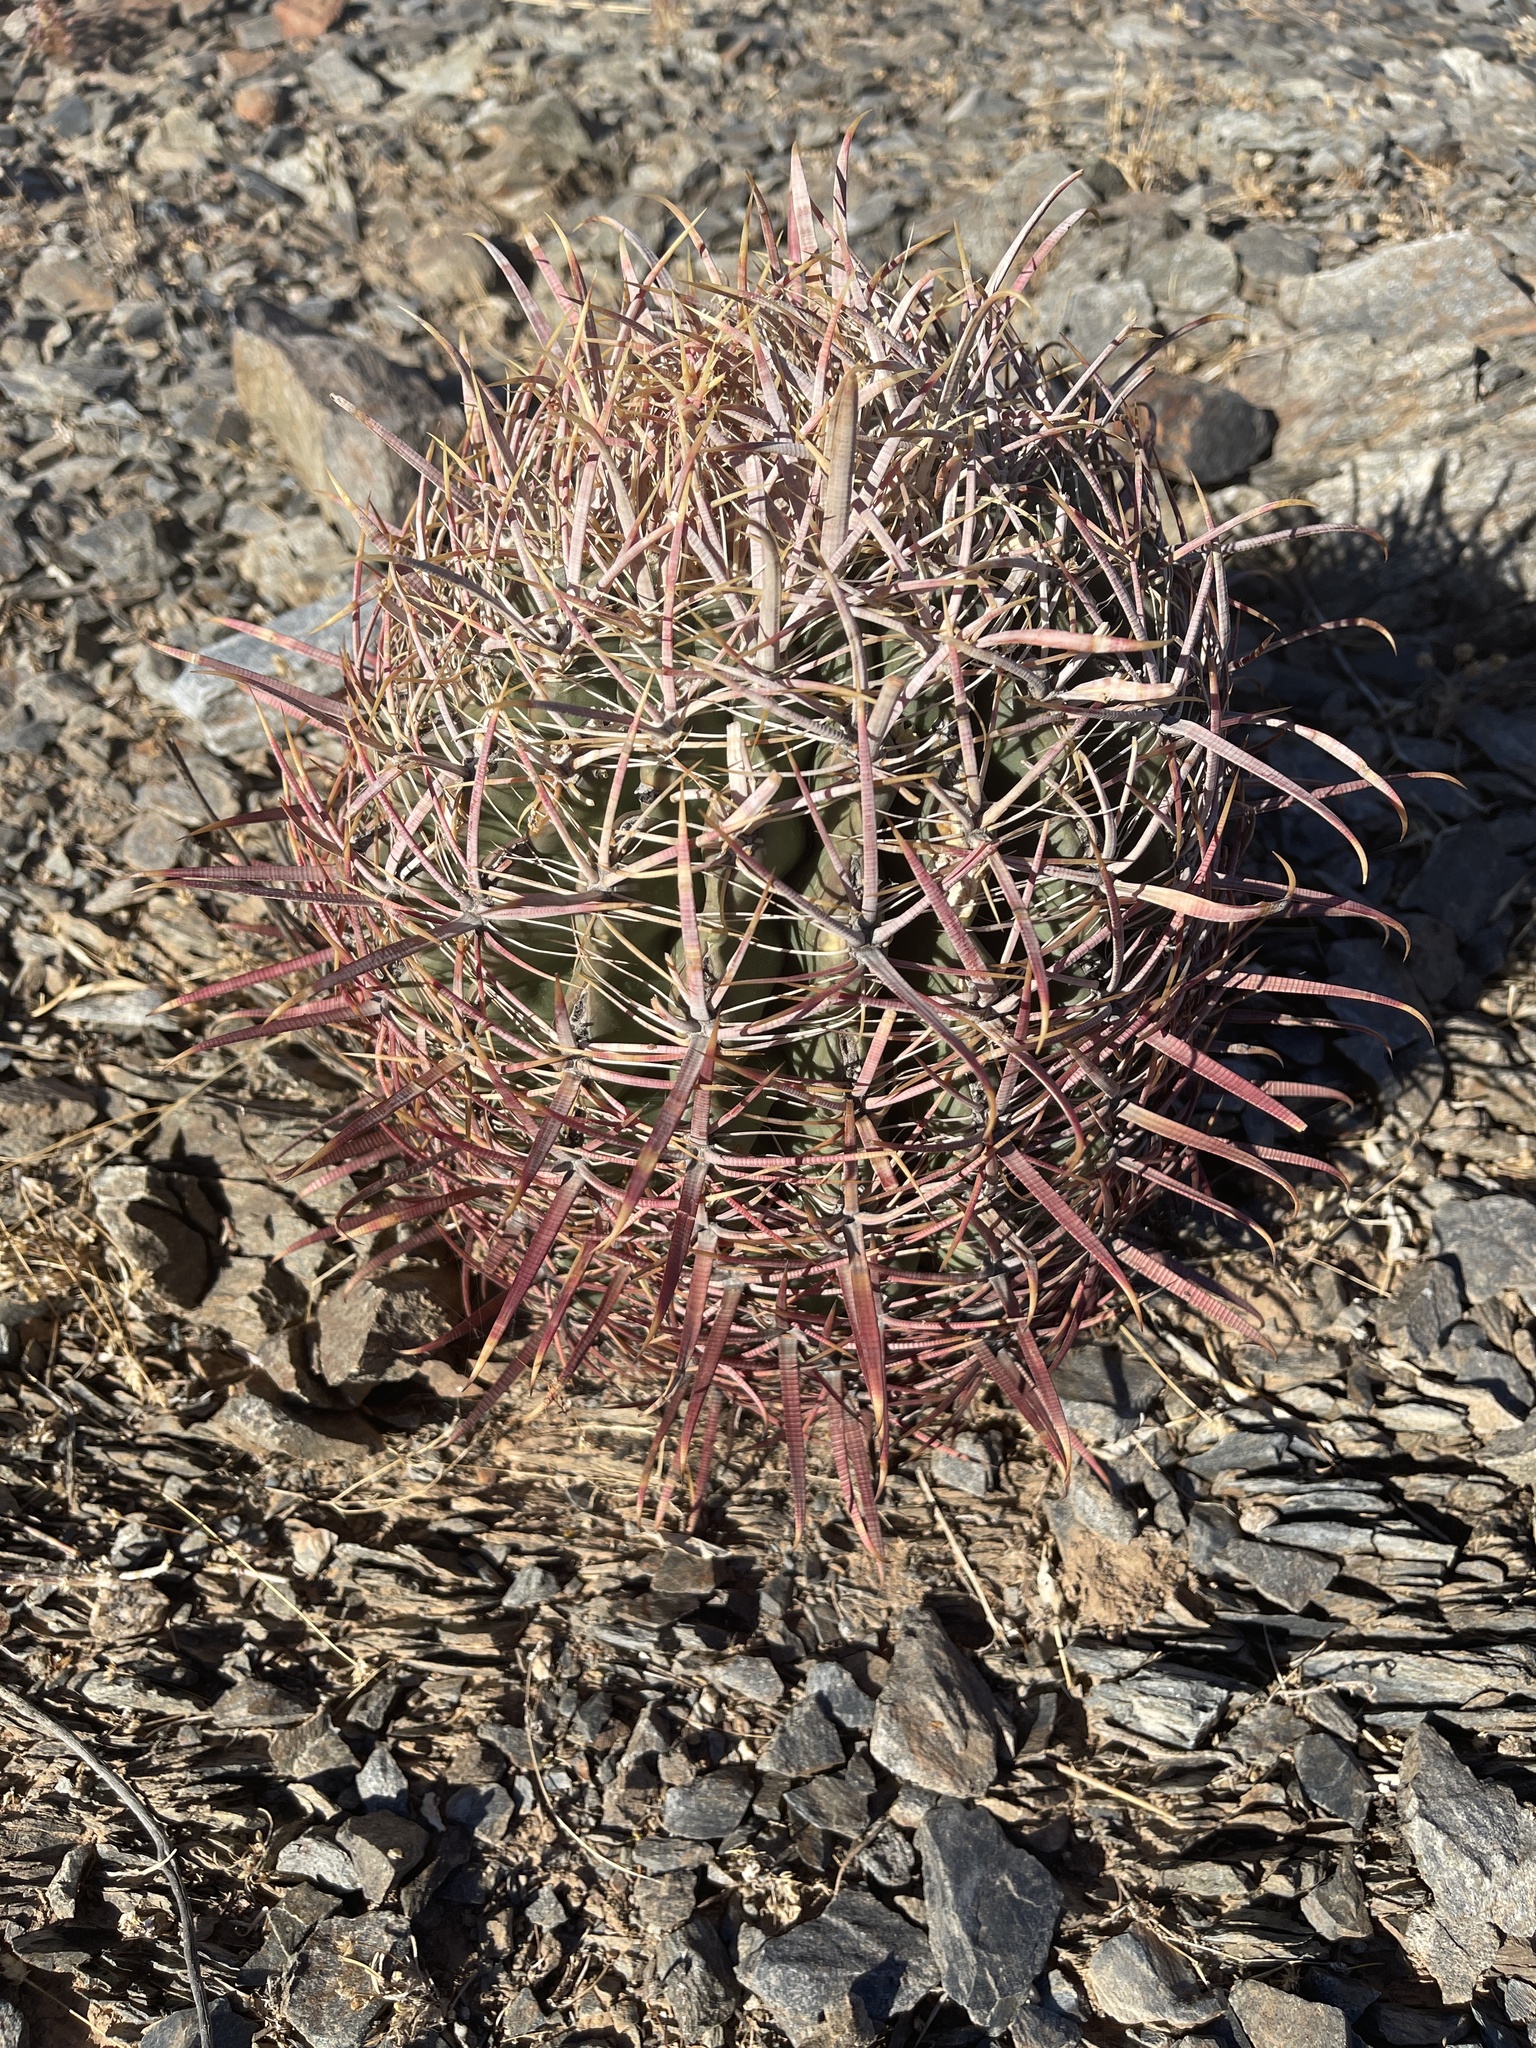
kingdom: Plantae
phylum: Tracheophyta
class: Magnoliopsida
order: Caryophyllales
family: Cactaceae
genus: Ferocactus
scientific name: Ferocactus cylindraceus
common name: California barrel cactus
